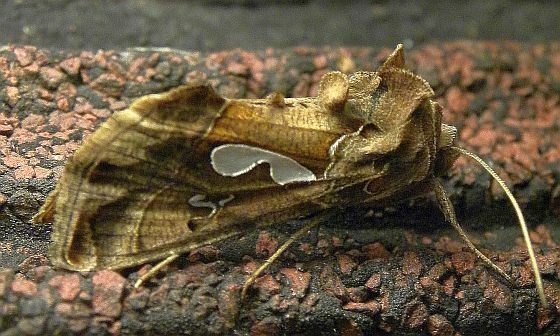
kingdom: Animalia
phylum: Arthropoda
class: Insecta
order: Lepidoptera
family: Noctuidae
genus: Megalographa
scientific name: Megalographa biloba
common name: Cutworm
